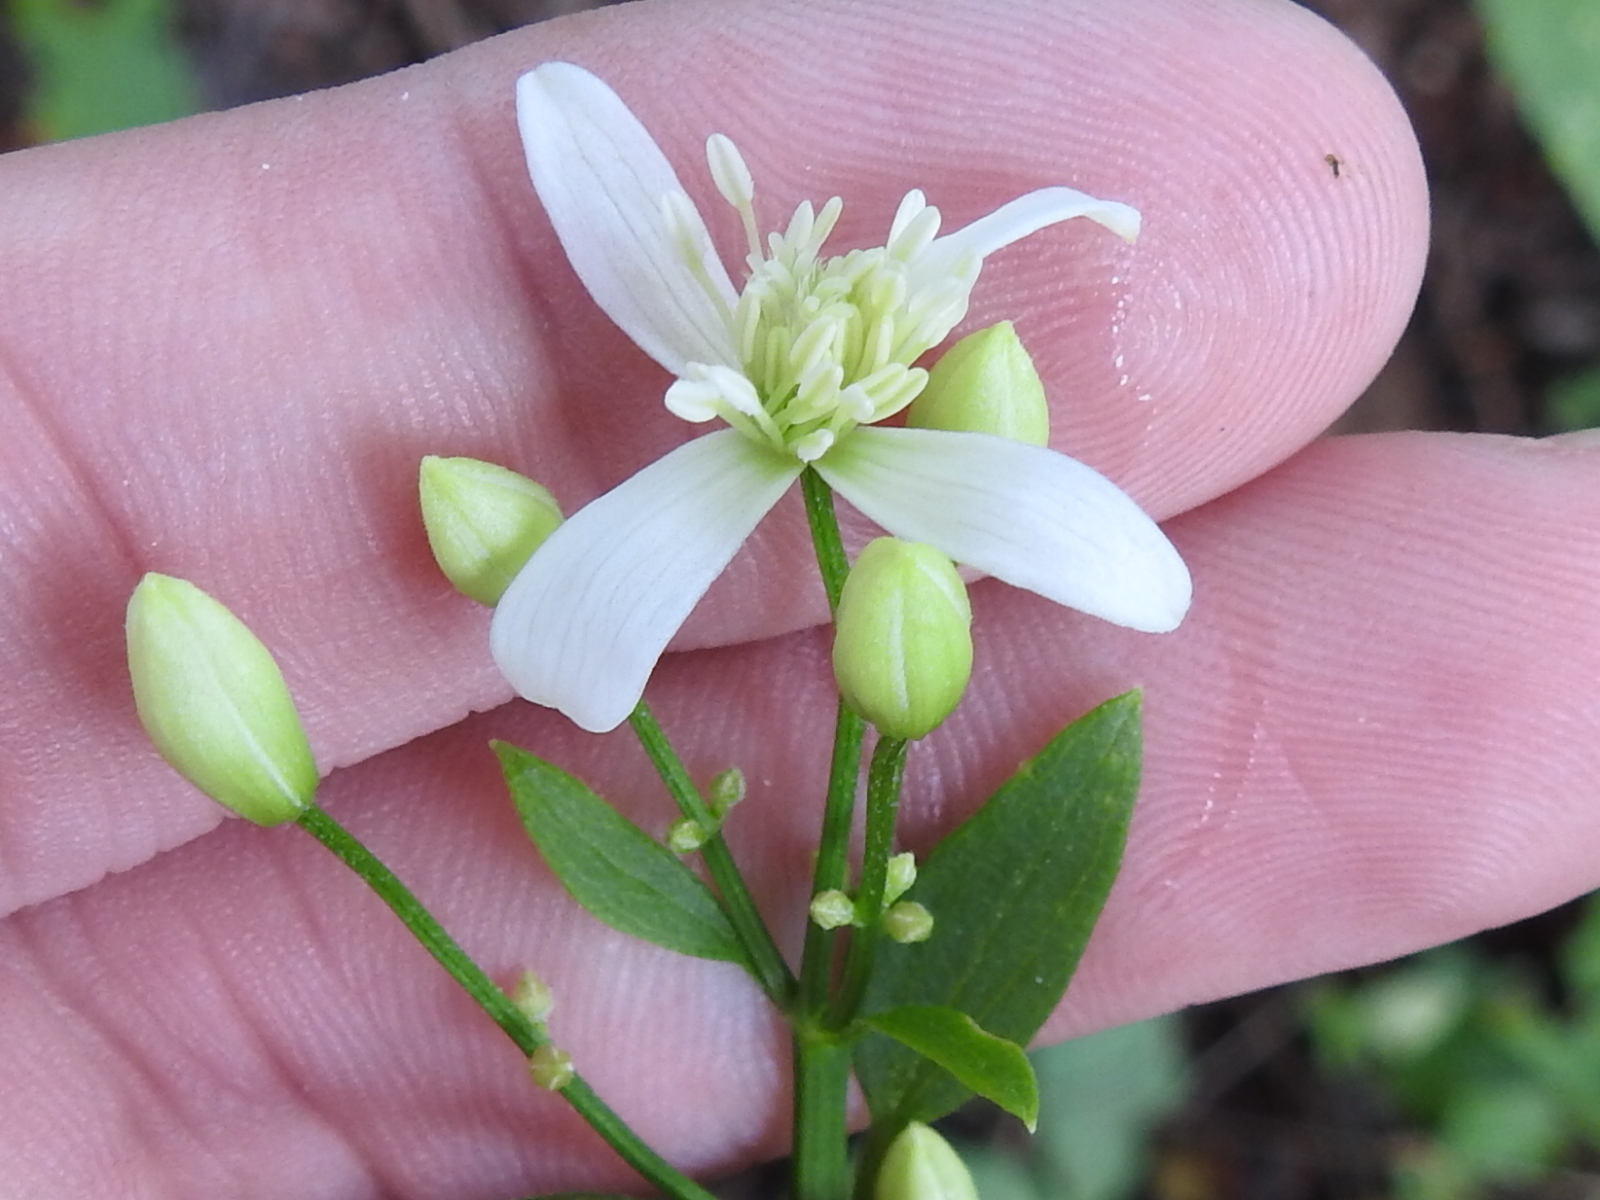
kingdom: Plantae
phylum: Tracheophyta
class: Magnoliopsida
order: Ranunculales
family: Ranunculaceae
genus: Clematis
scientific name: Clematis terniflora
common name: Sweet autumn clematis
